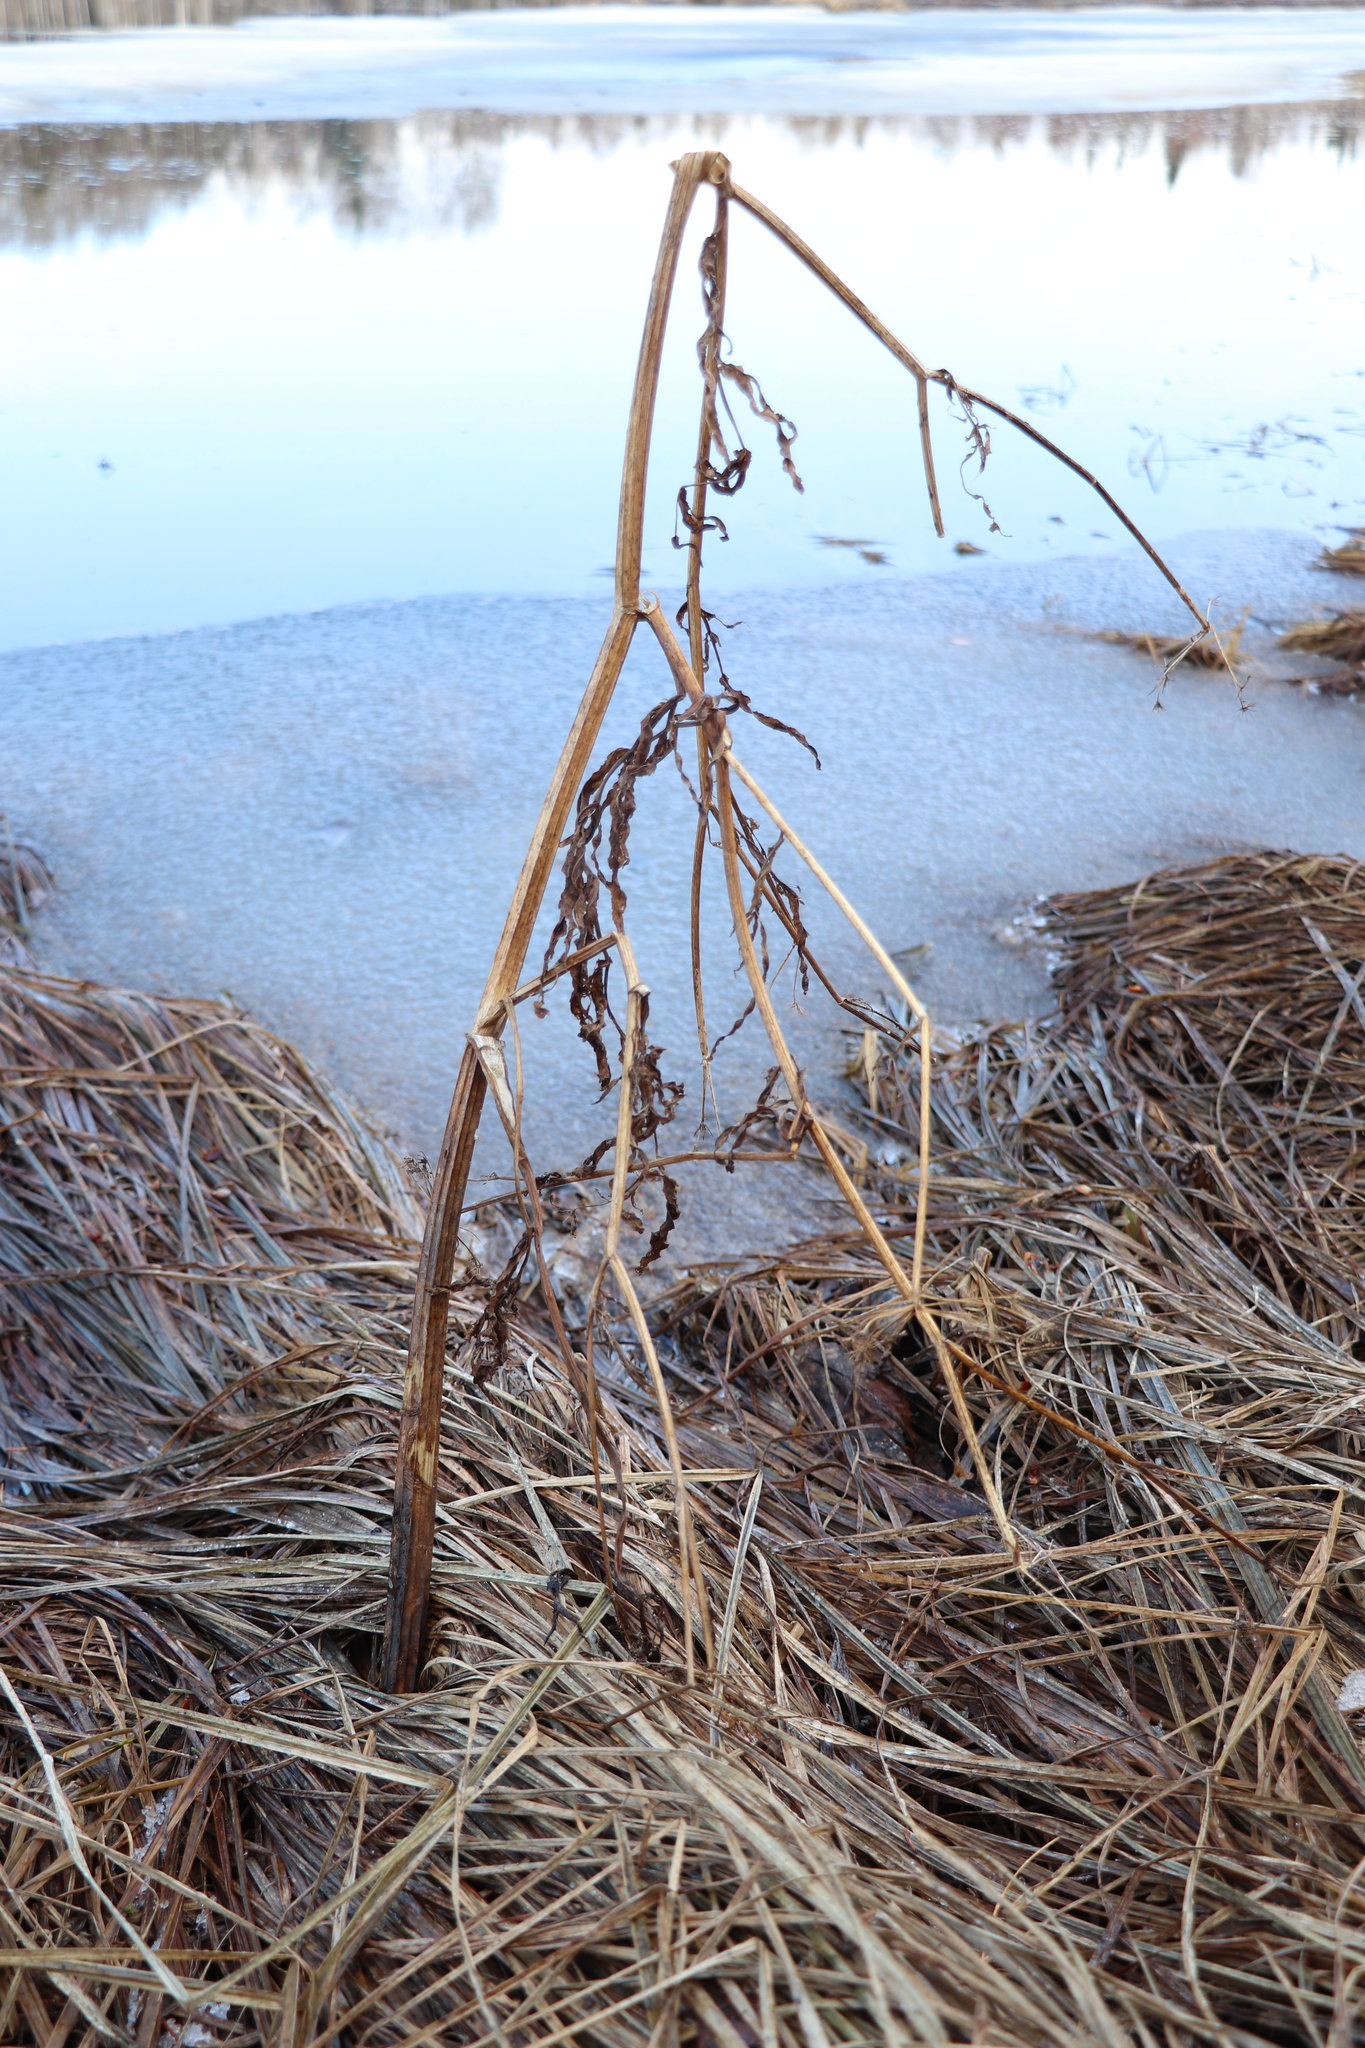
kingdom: Plantae
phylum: Tracheophyta
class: Magnoliopsida
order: Apiales
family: Apiaceae
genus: Cicuta
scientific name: Cicuta virosa
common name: Cowbane
